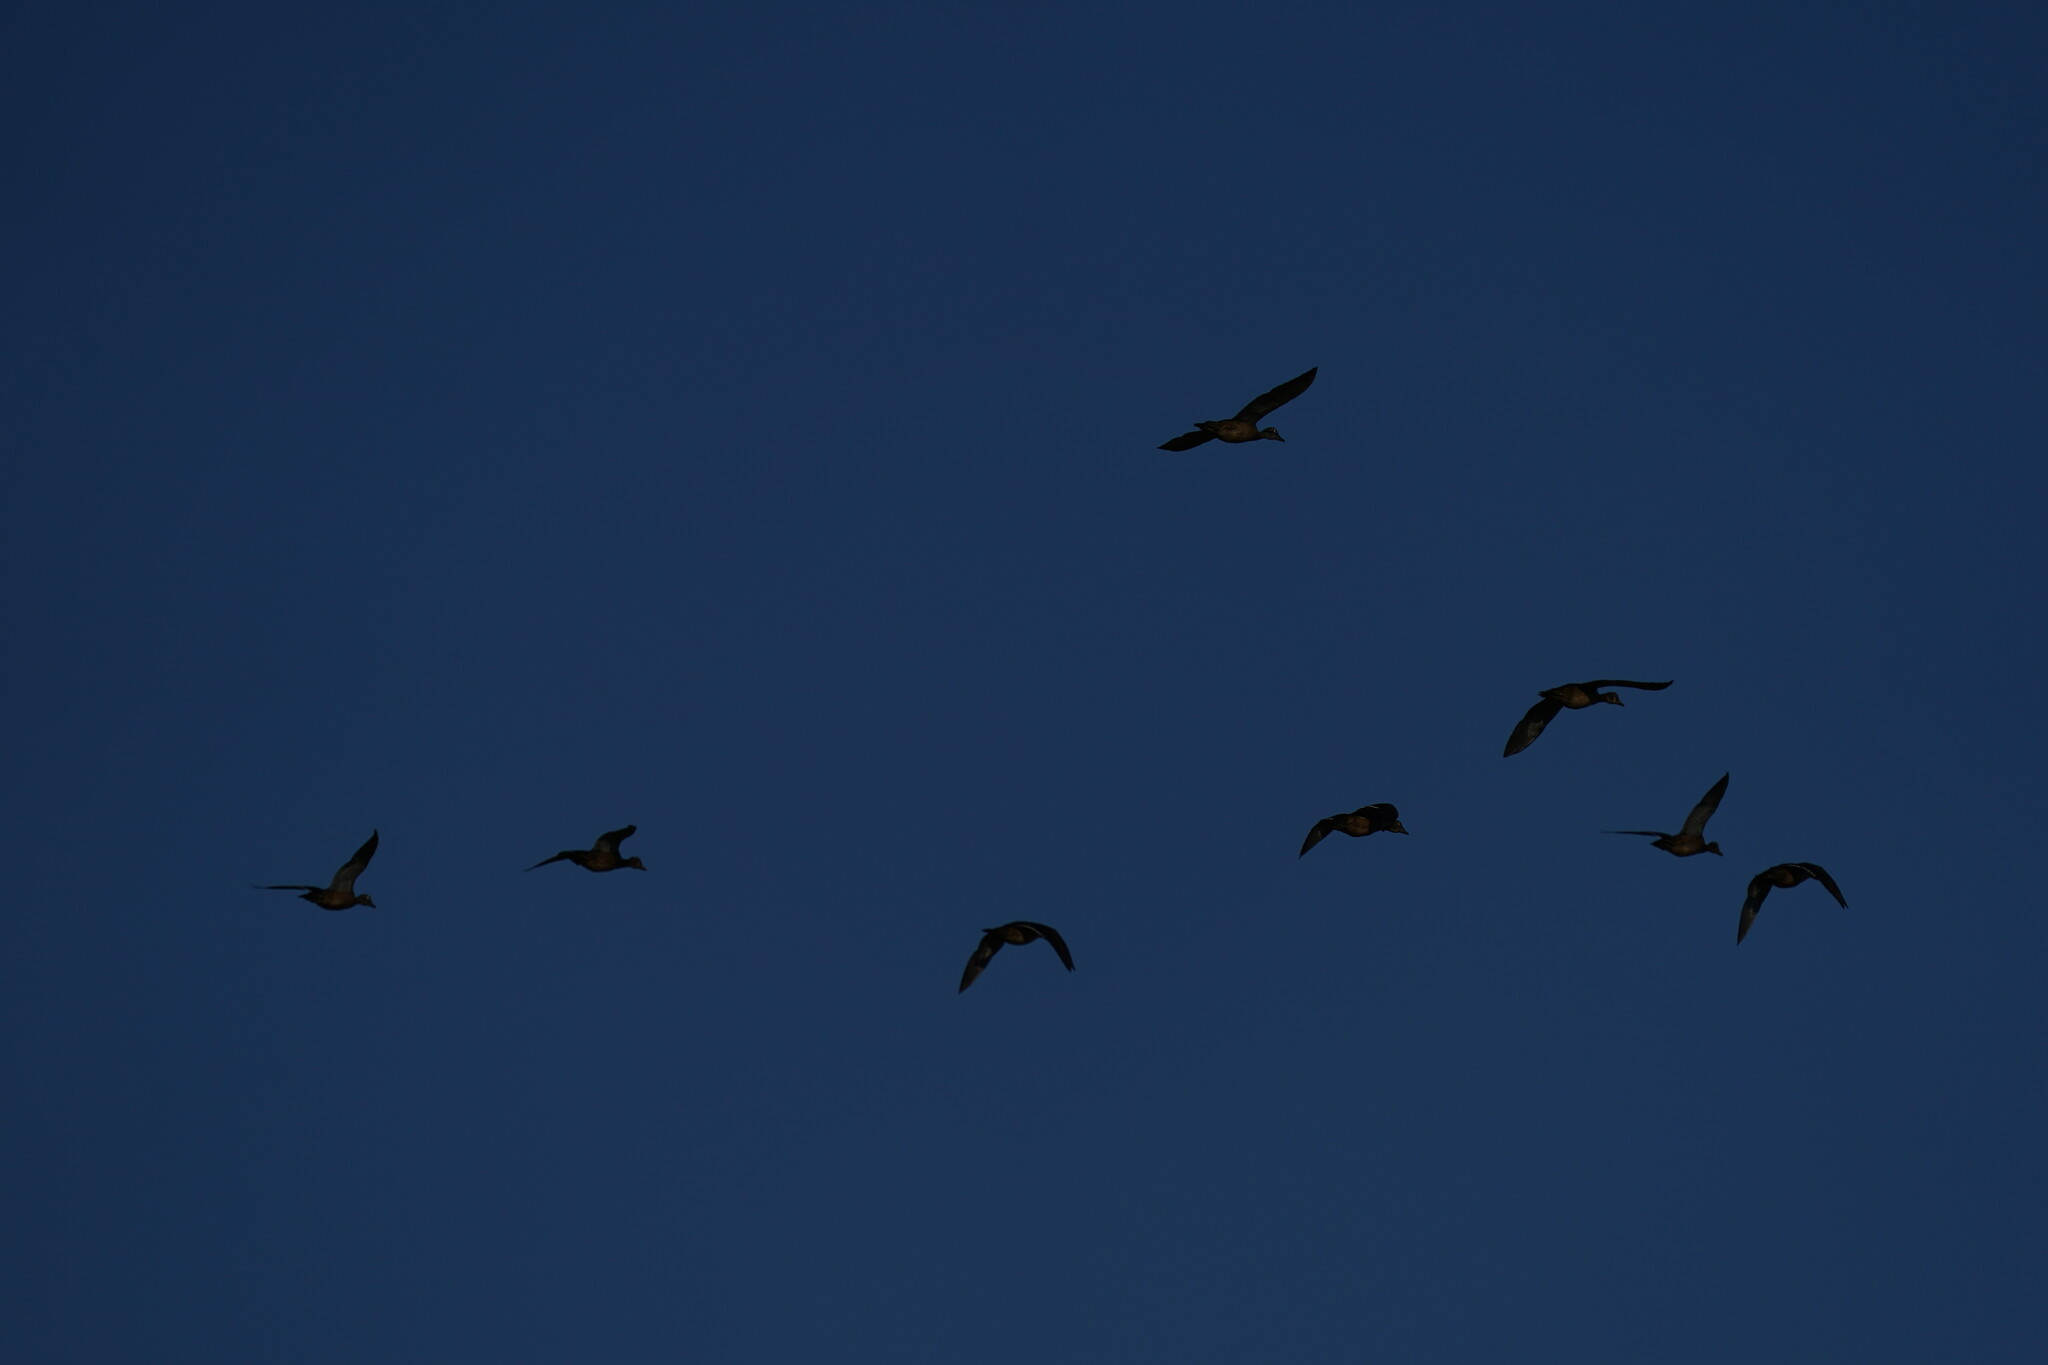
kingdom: Animalia
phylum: Chordata
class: Aves
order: Anseriformes
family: Anatidae
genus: Aix
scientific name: Aix sponsa
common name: Wood duck
